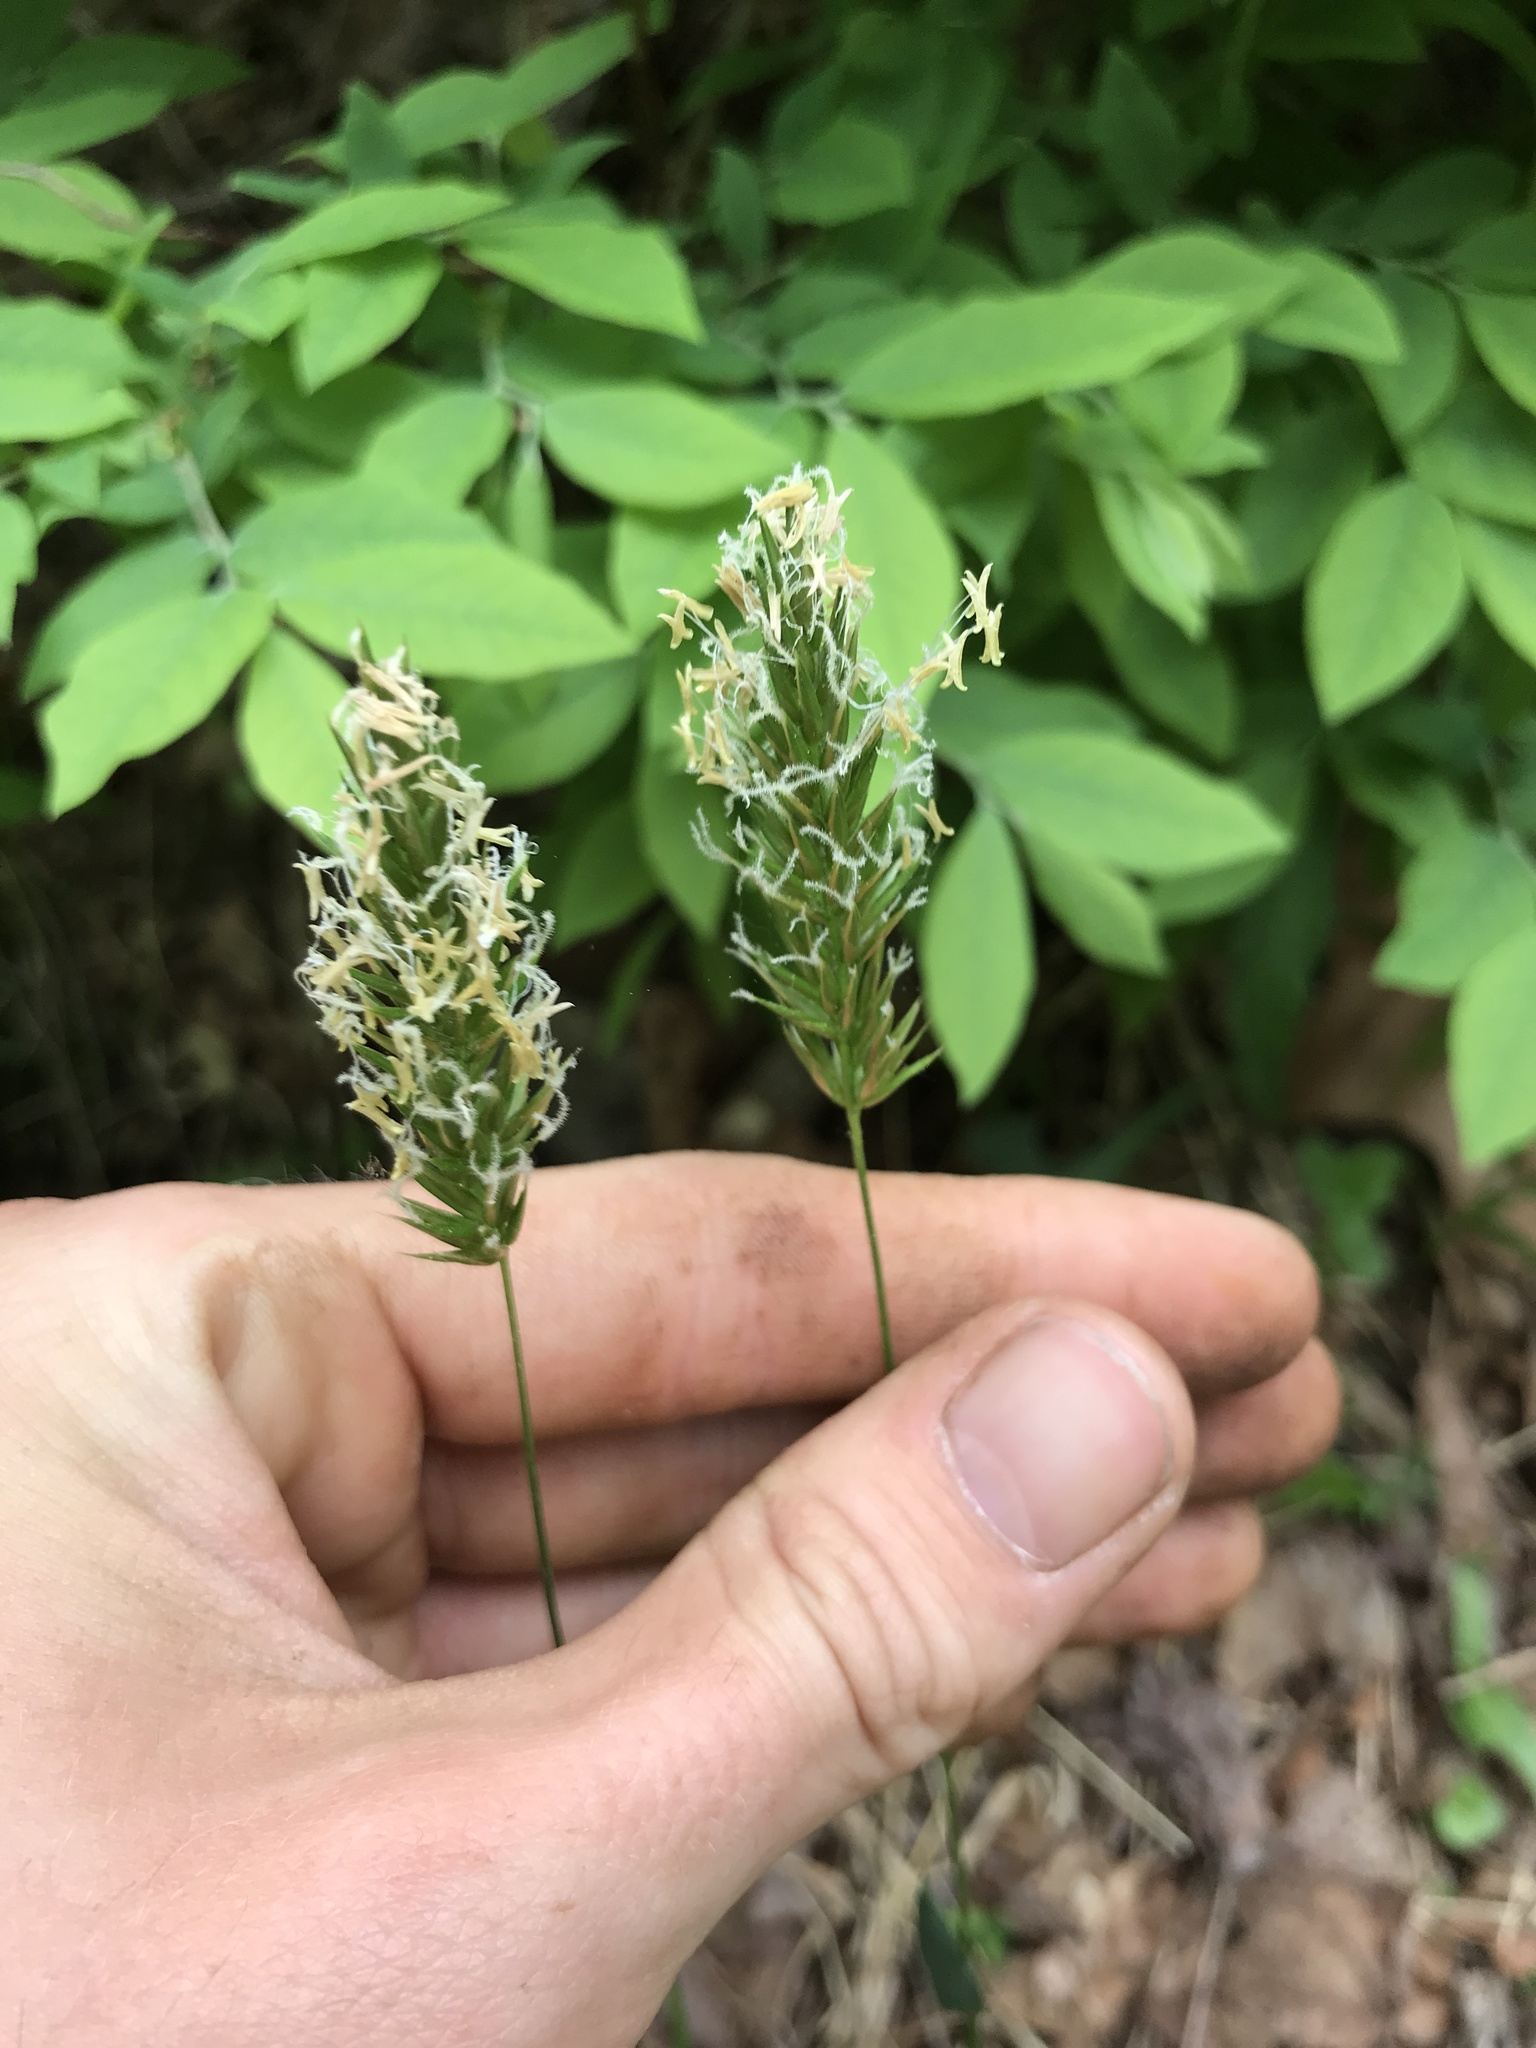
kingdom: Plantae
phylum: Tracheophyta
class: Liliopsida
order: Poales
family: Poaceae
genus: Anthoxanthum
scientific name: Anthoxanthum odoratum
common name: Sweet vernalgrass
